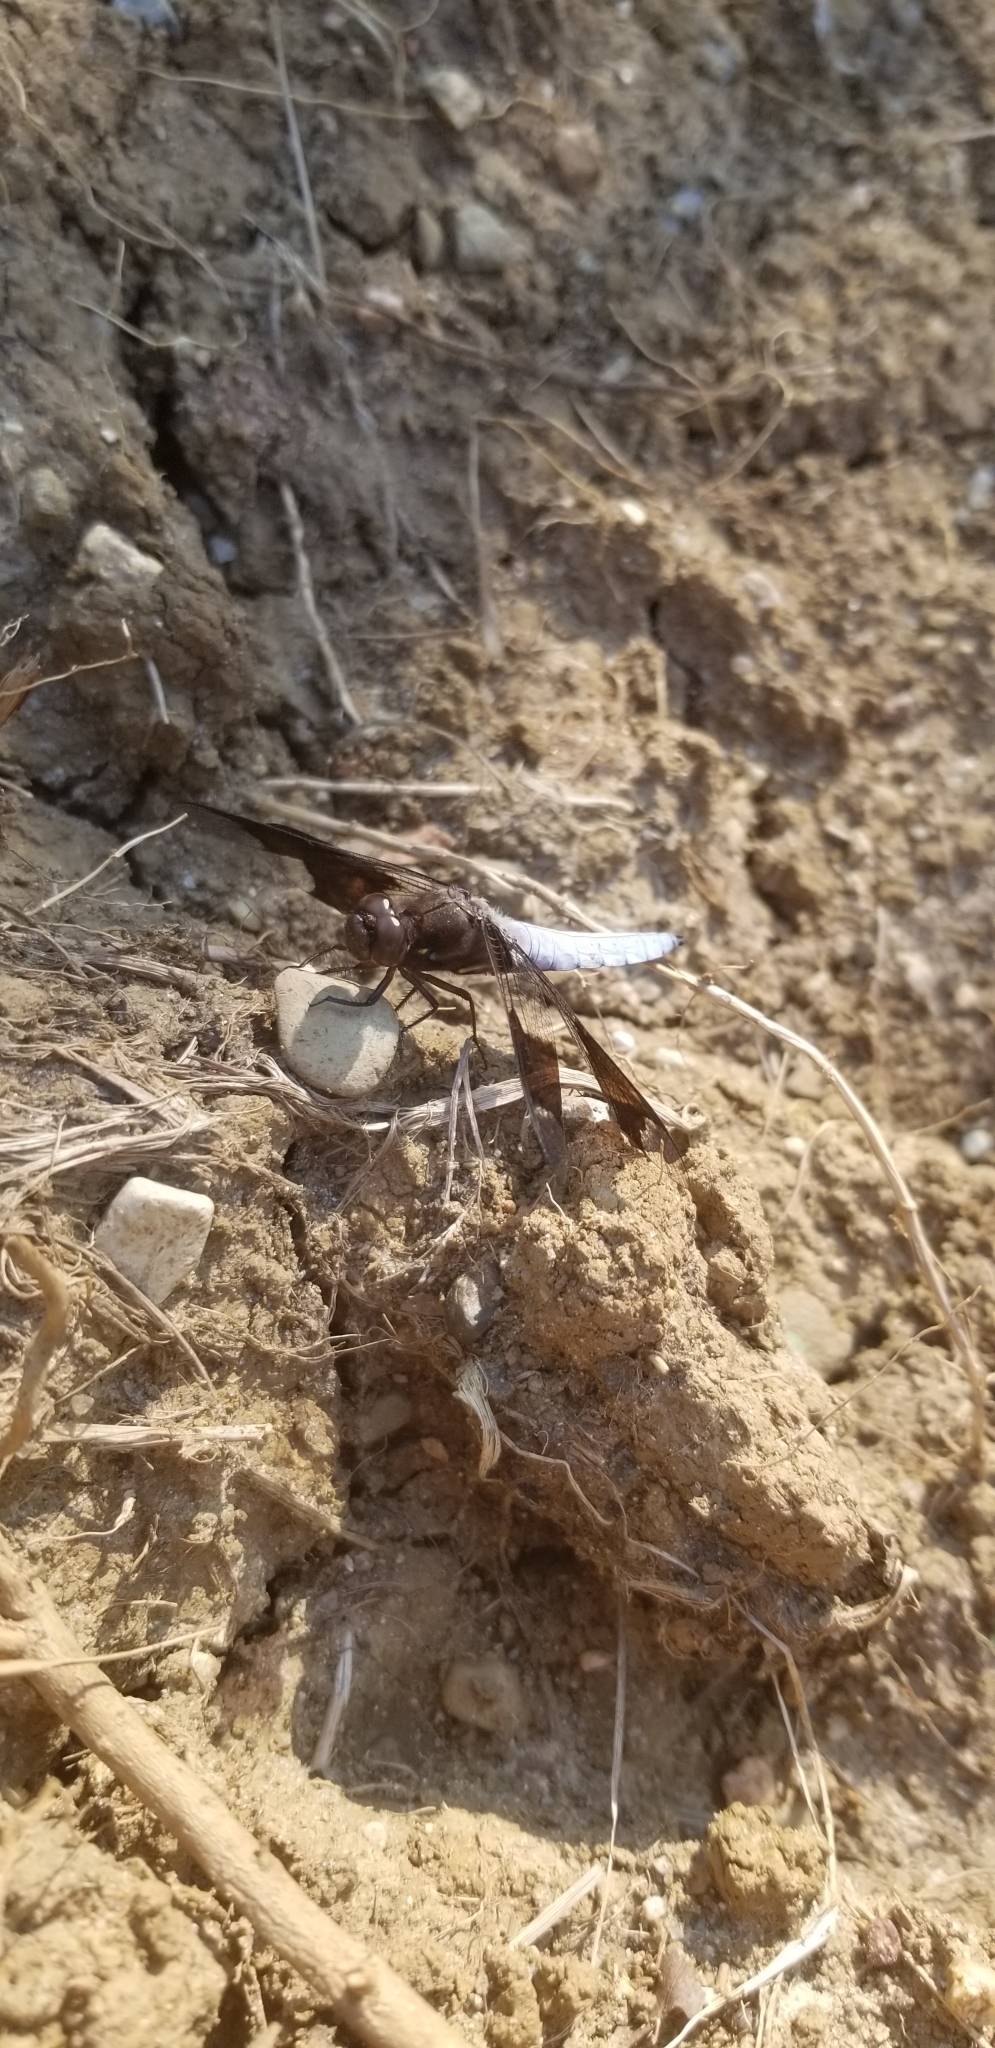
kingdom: Animalia
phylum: Arthropoda
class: Insecta
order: Odonata
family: Libellulidae
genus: Plathemis
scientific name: Plathemis lydia
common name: Common whitetail
